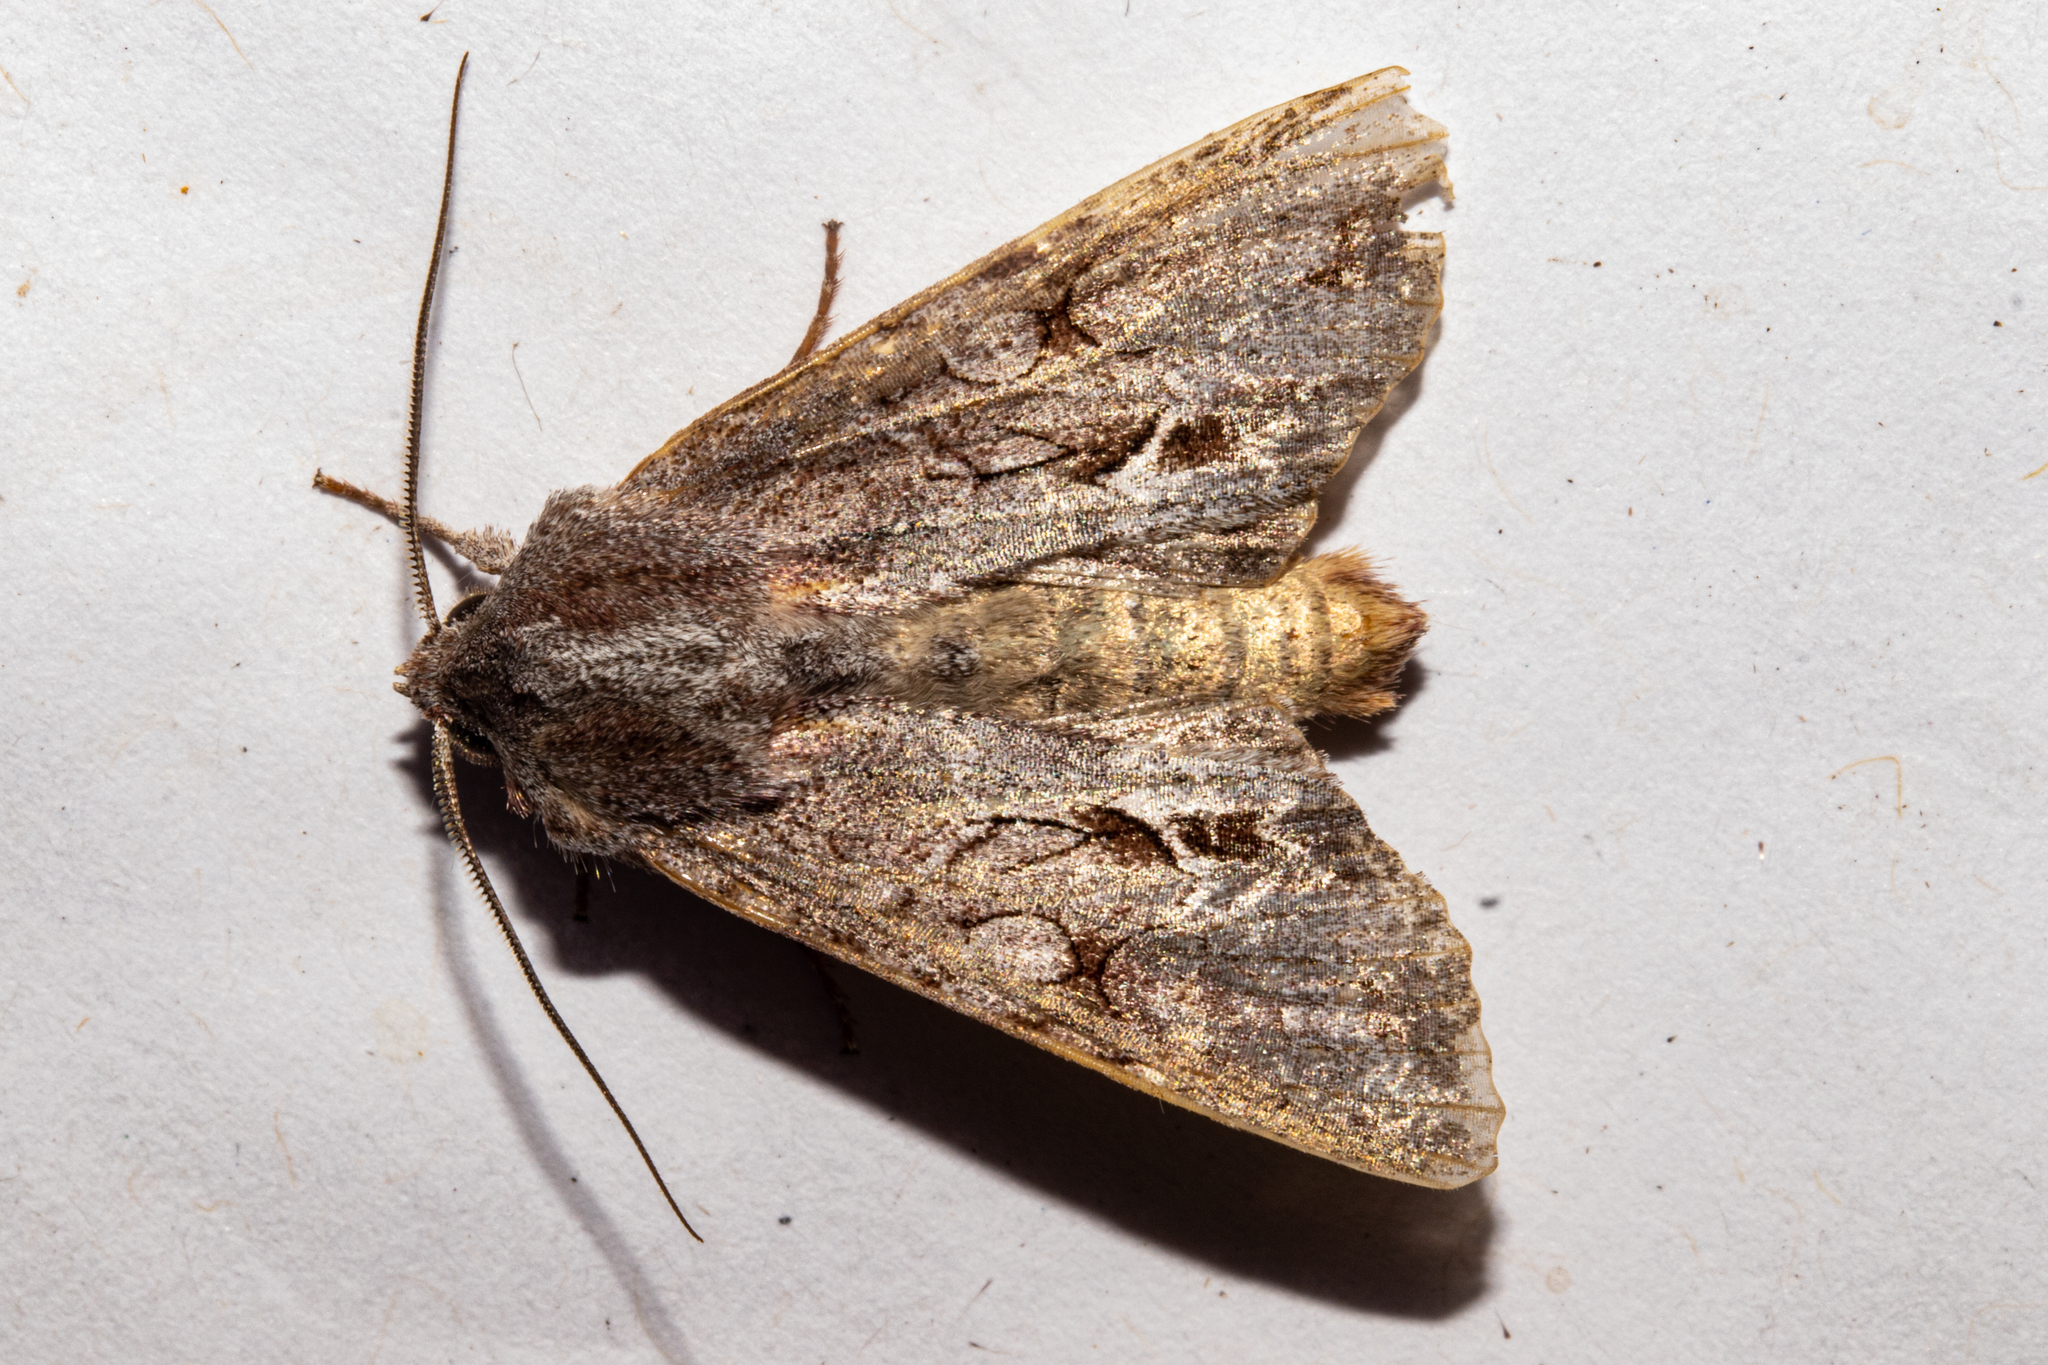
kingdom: Animalia
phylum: Arthropoda
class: Insecta
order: Lepidoptera
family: Noctuidae
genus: Ichneutica
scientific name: Ichneutica
